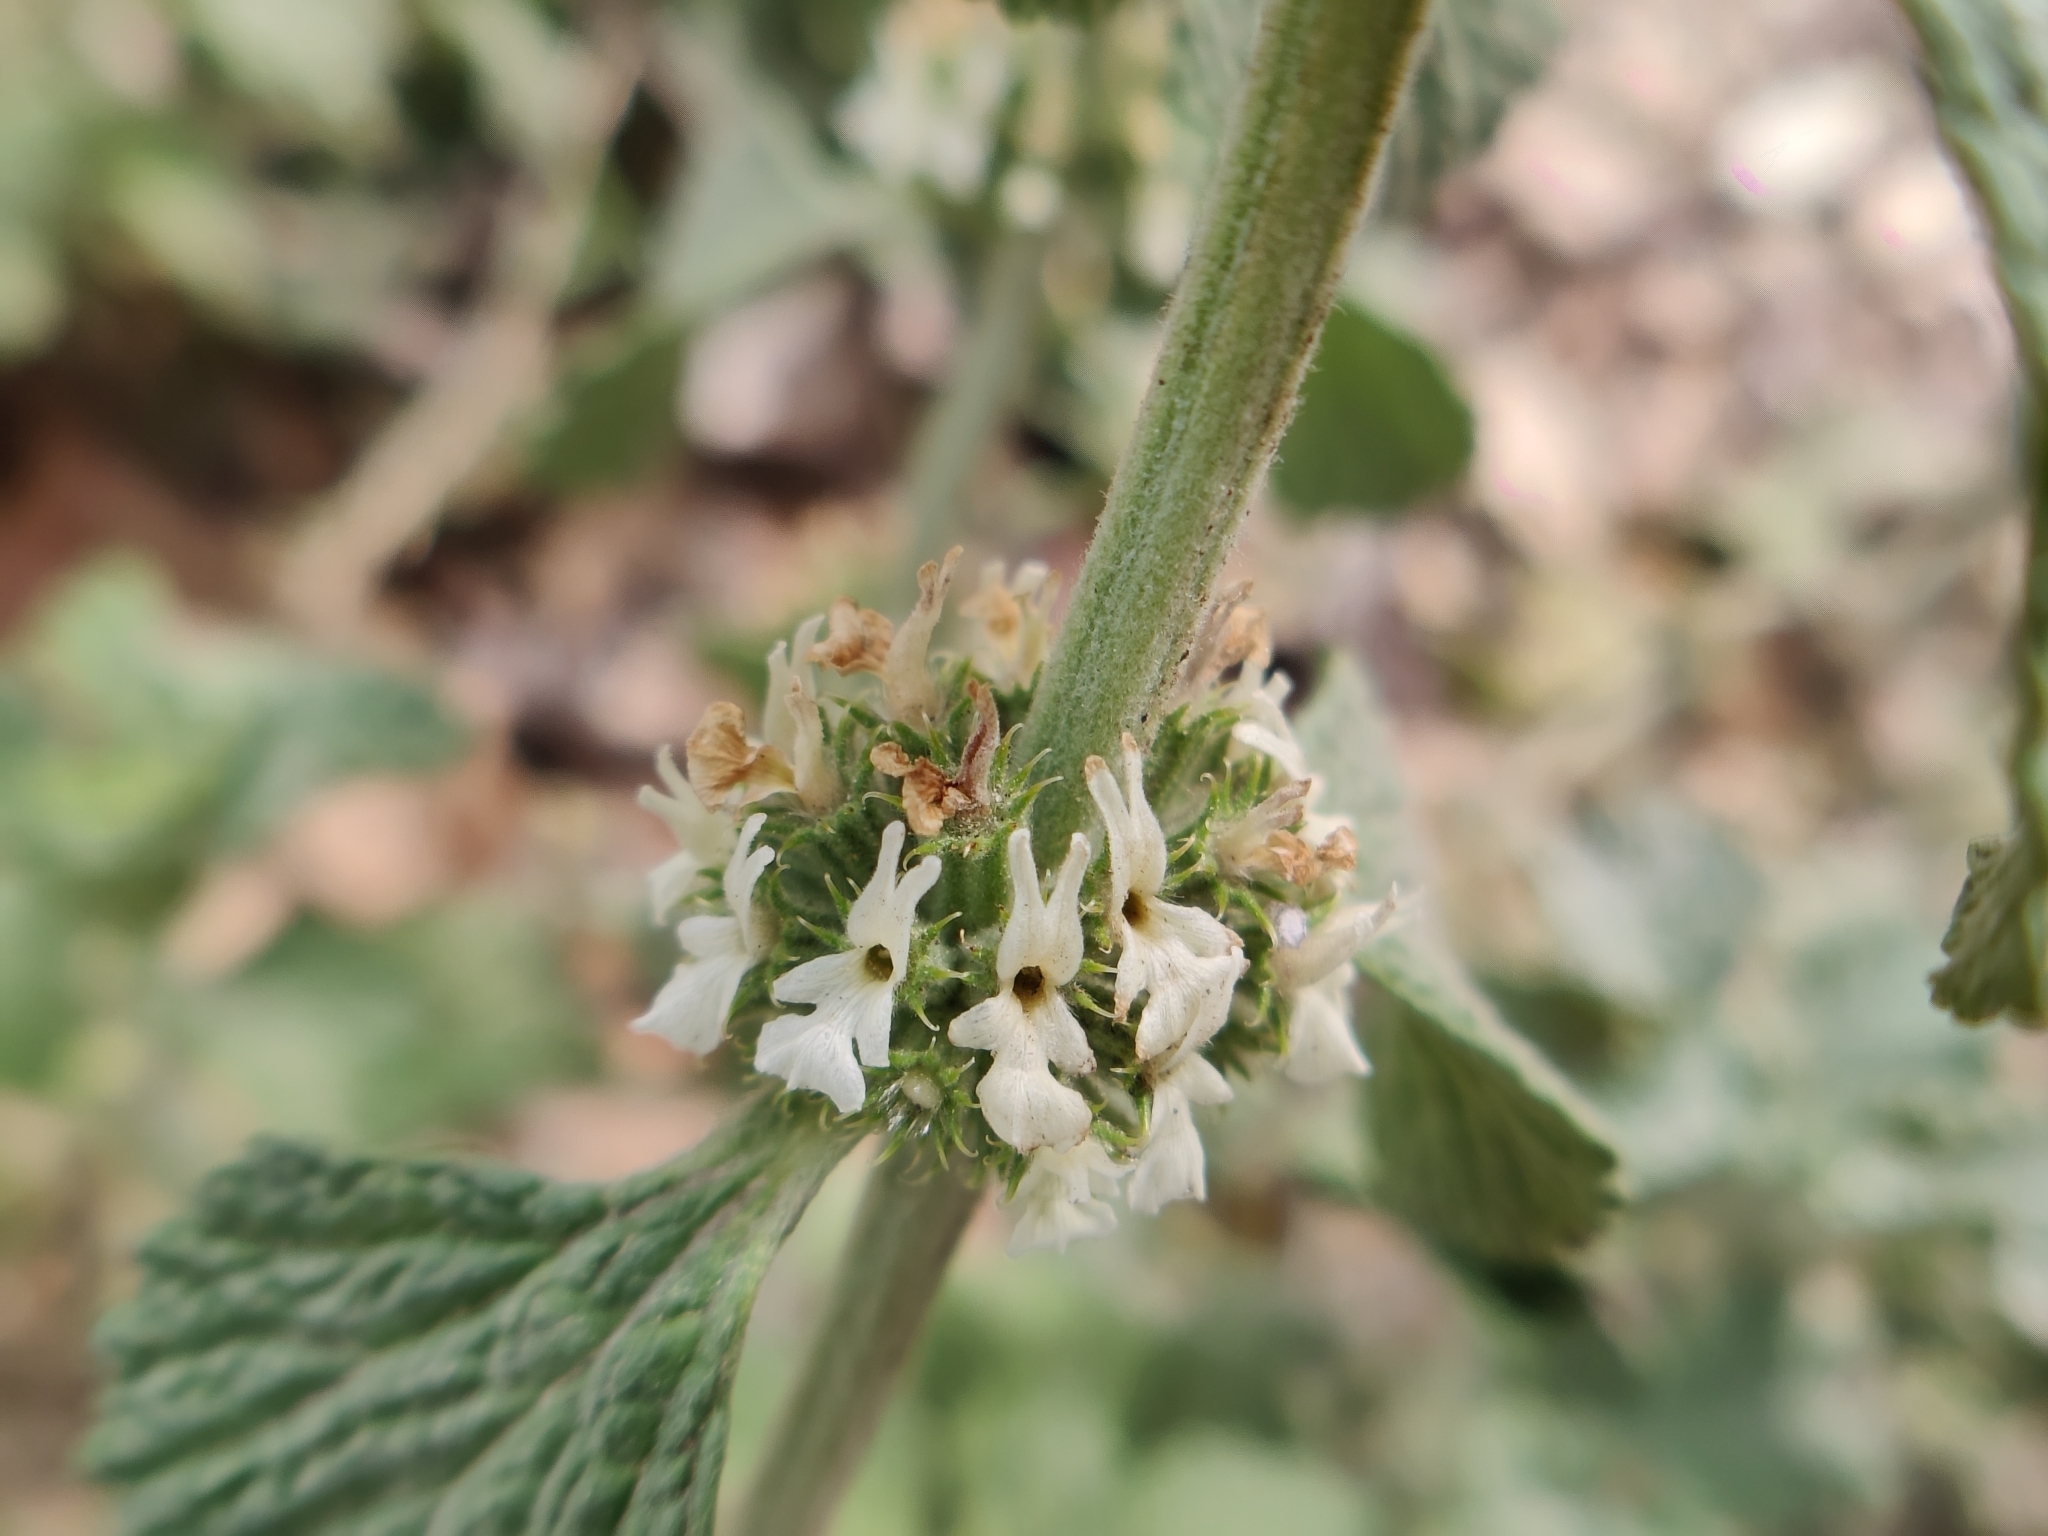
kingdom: Plantae
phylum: Tracheophyta
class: Magnoliopsida
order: Lamiales
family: Lamiaceae
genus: Marrubium
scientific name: Marrubium vulgare
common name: Horehound
